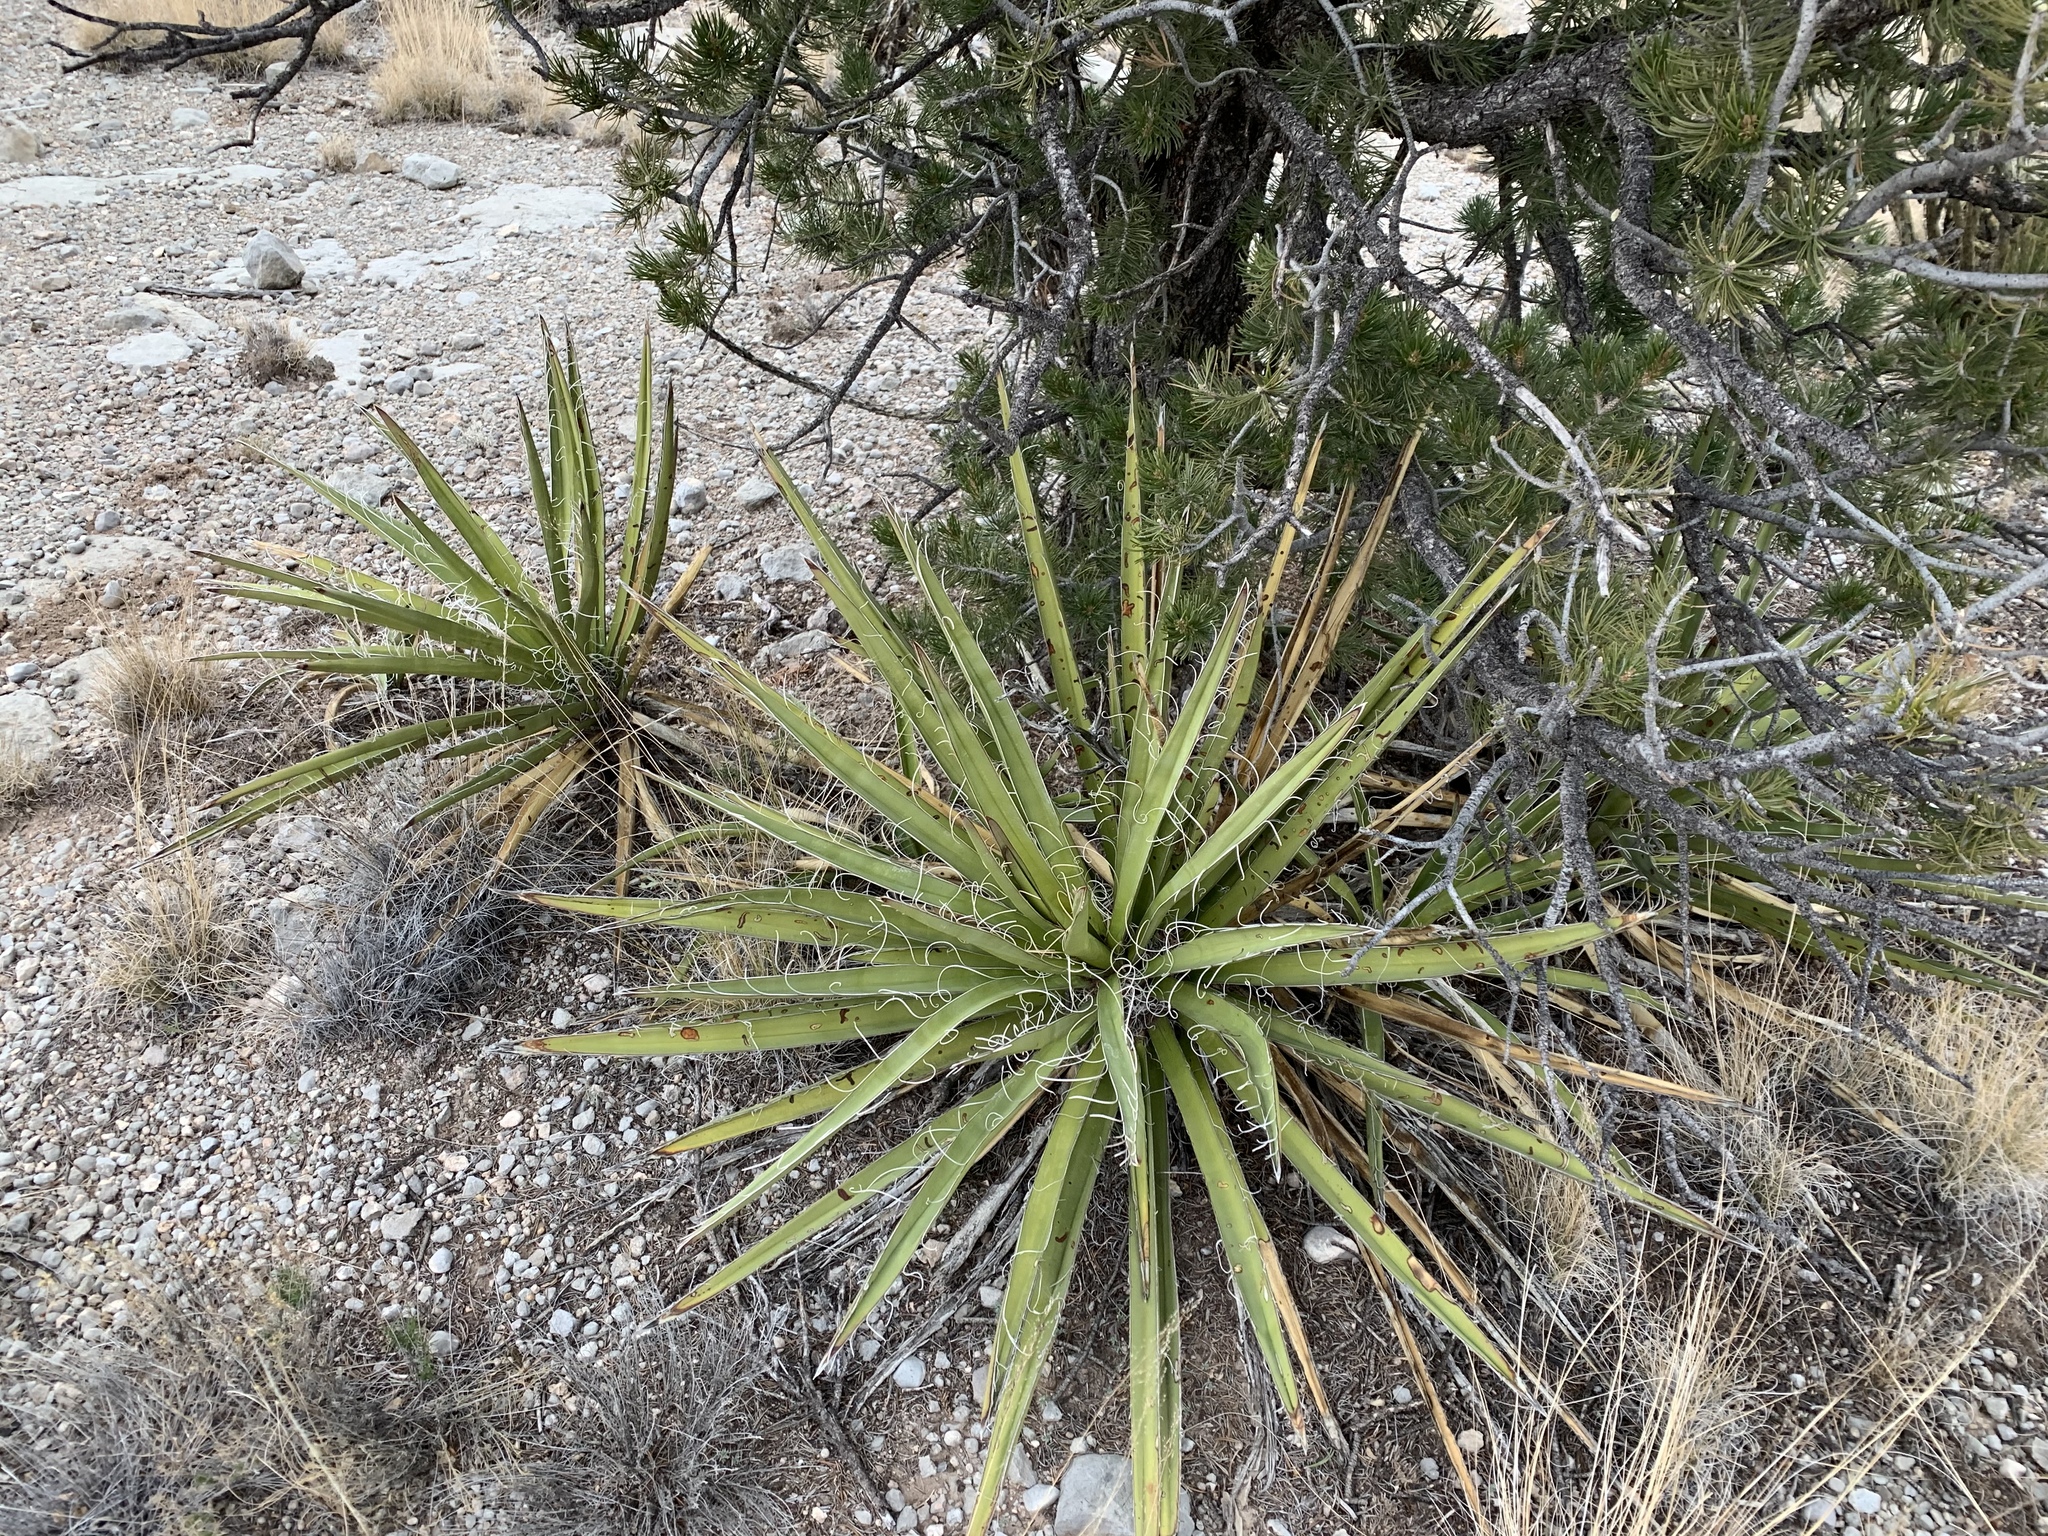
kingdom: Plantae
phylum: Tracheophyta
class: Liliopsida
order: Asparagales
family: Asparagaceae
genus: Yucca
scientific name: Yucca baccata
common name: Banana yucca
